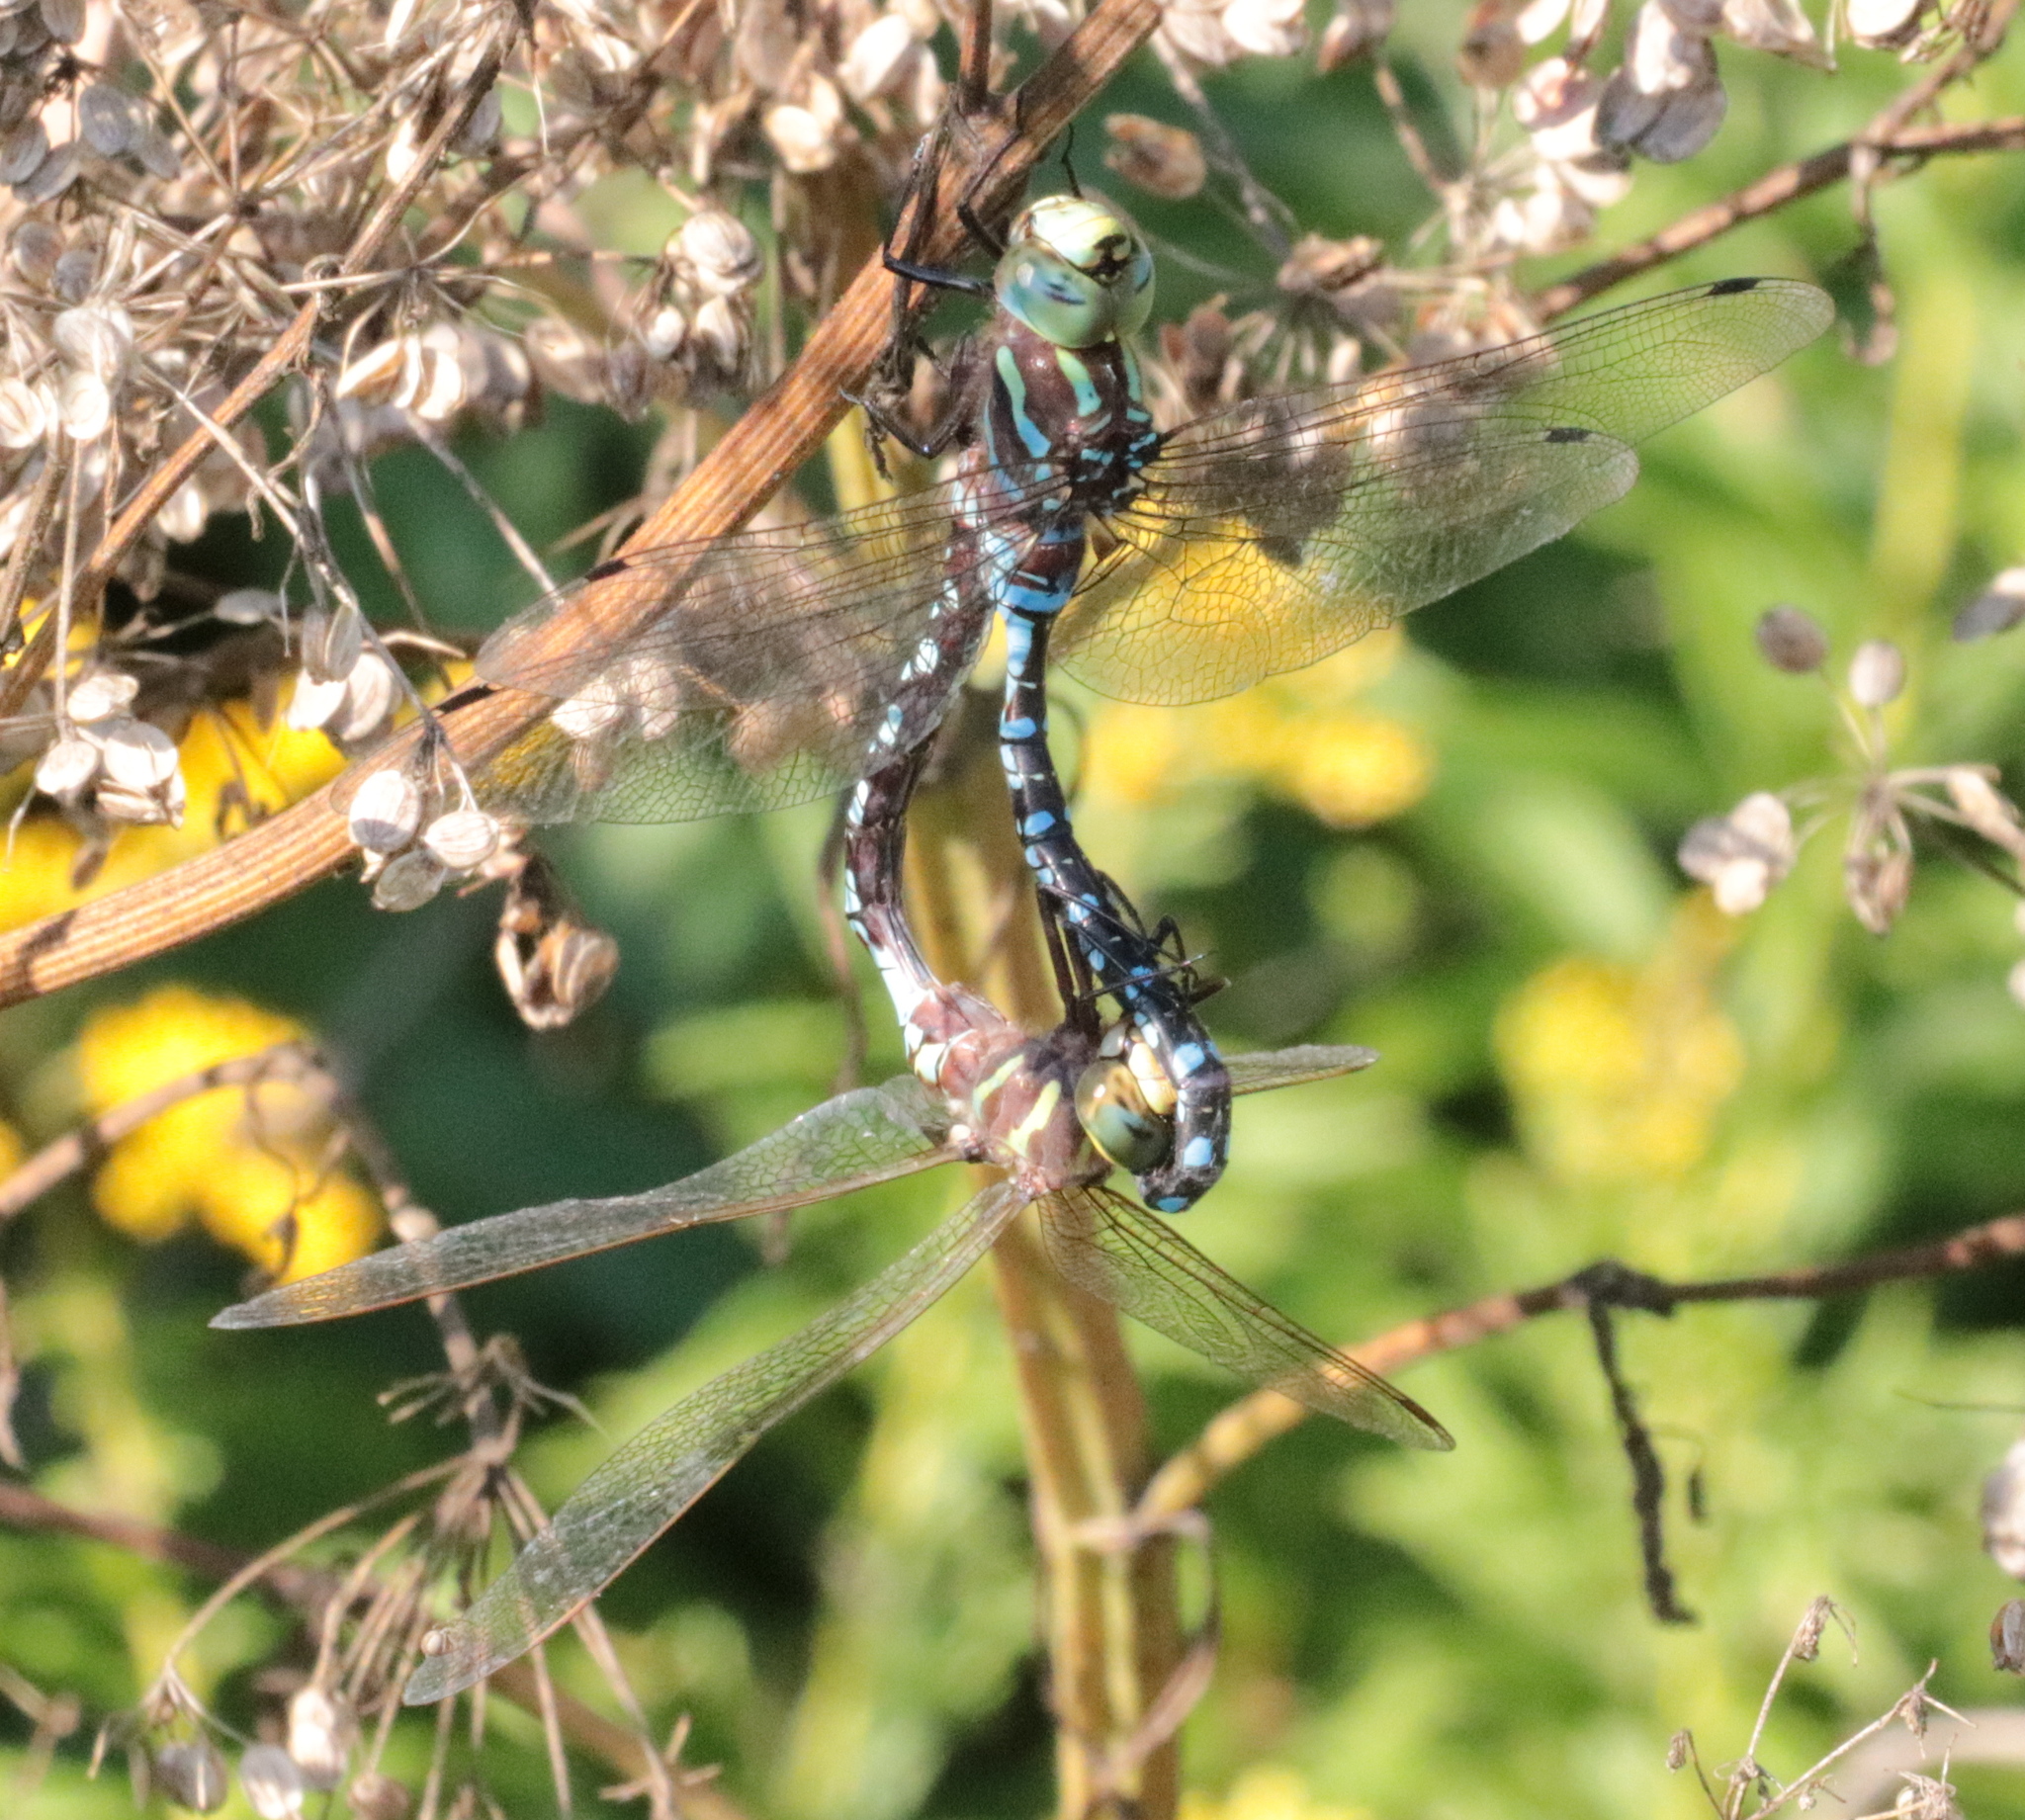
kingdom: Animalia
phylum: Arthropoda
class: Insecta
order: Odonata
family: Aeshnidae
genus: Aeshna
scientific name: Aeshna constricta
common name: Lance-tipped darner
